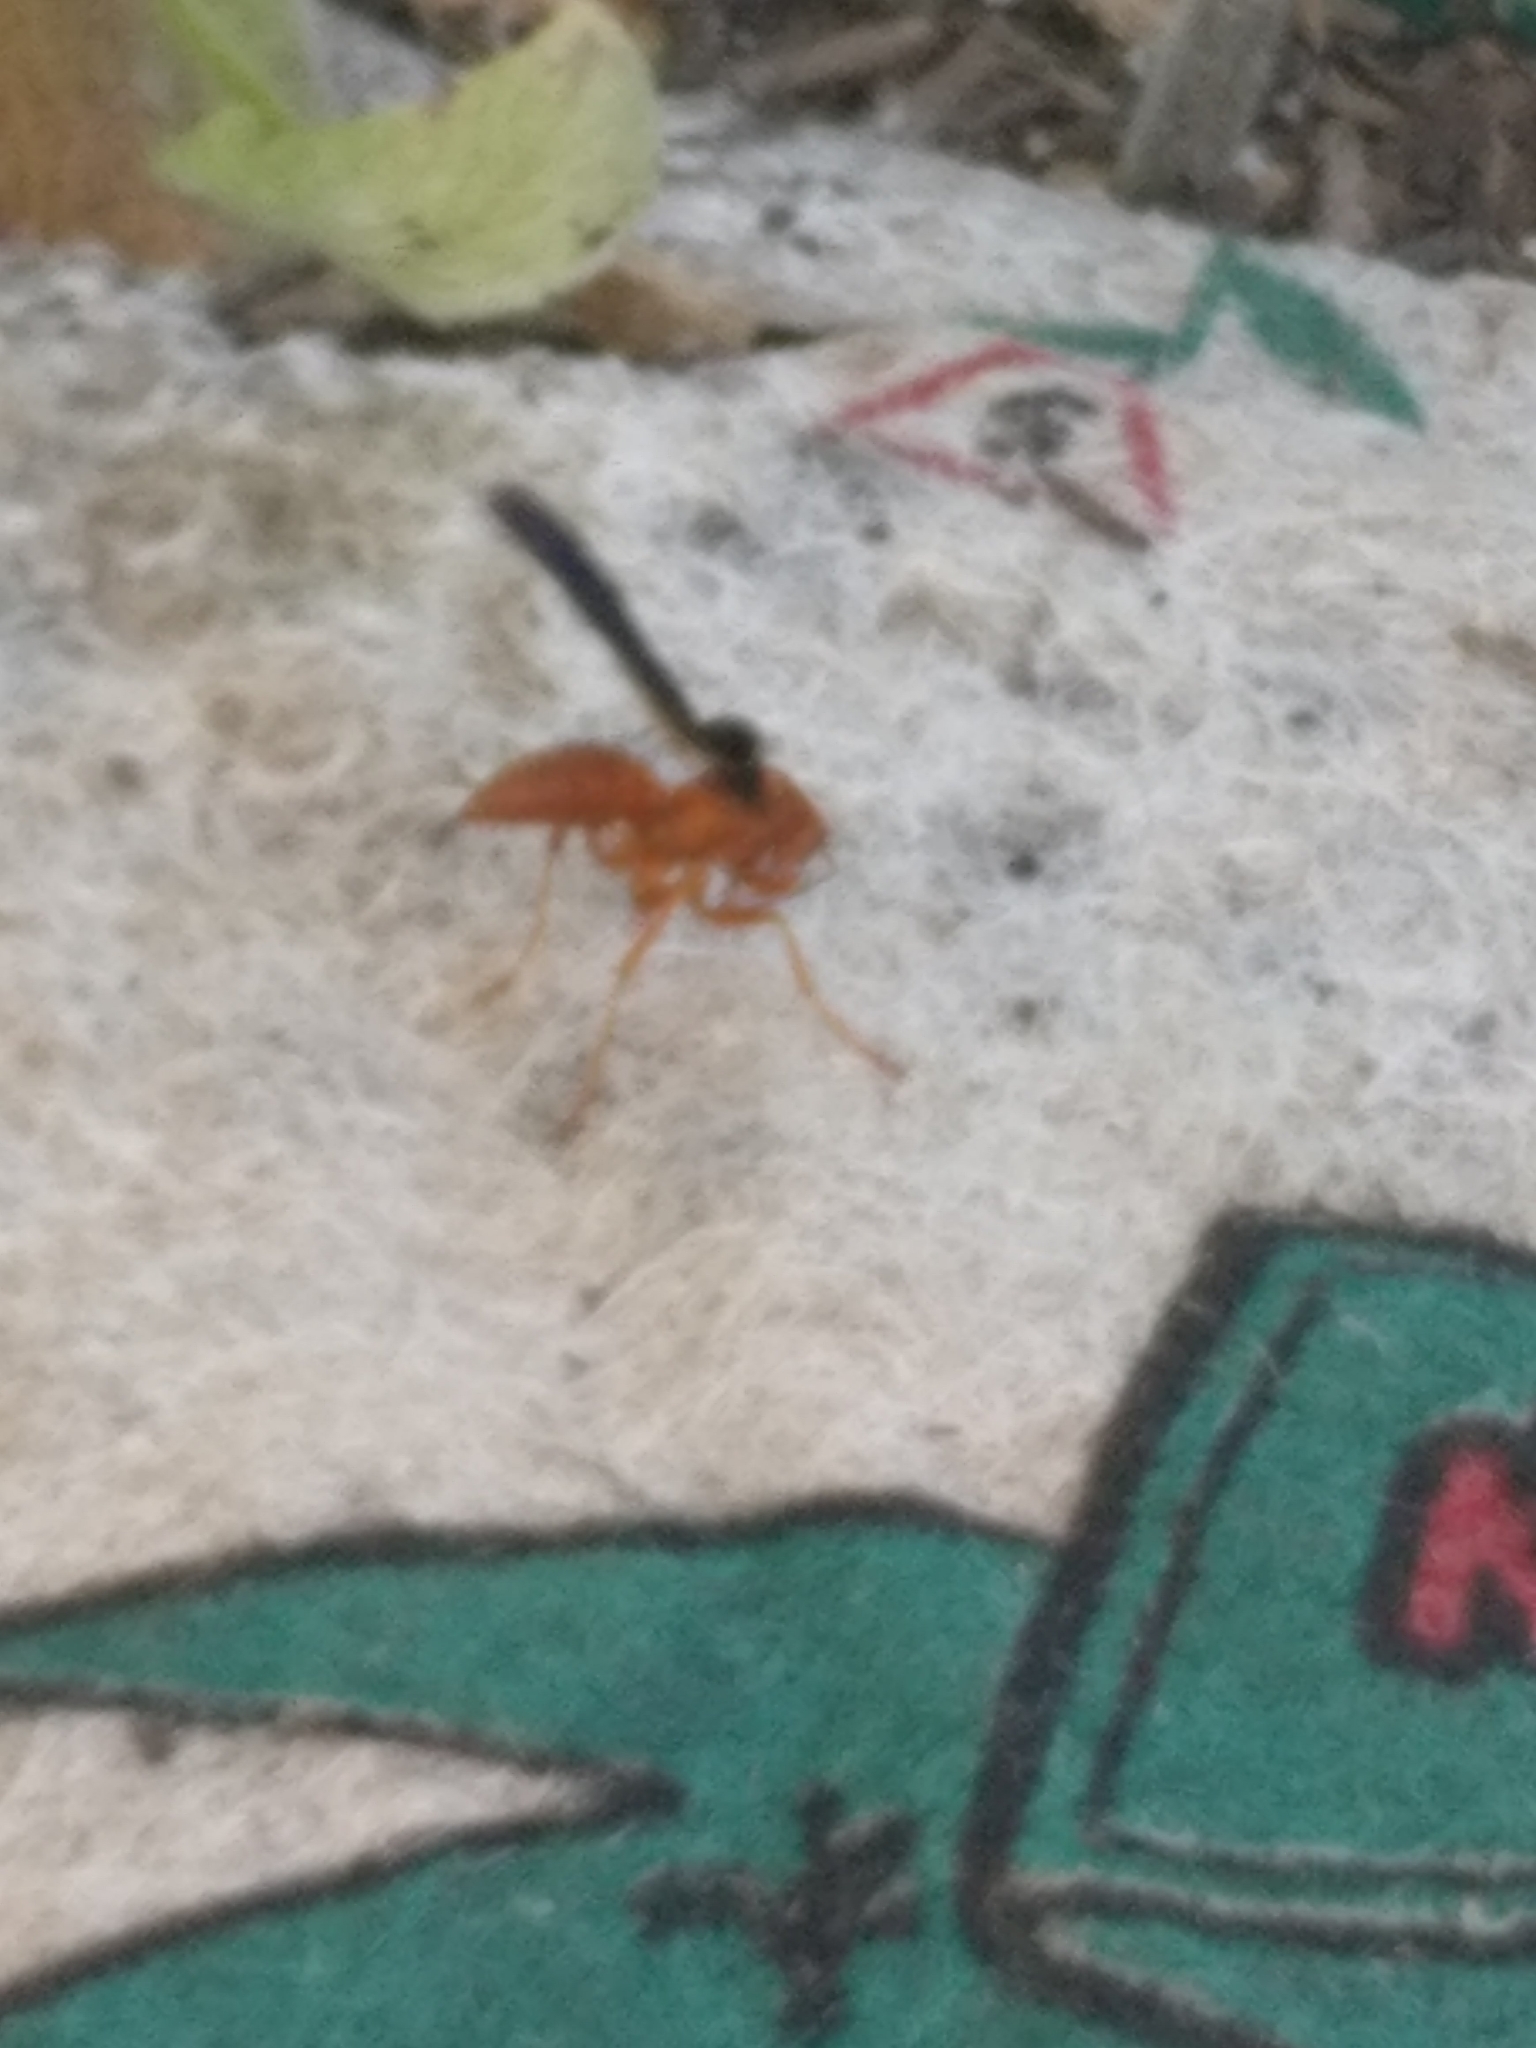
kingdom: Animalia
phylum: Arthropoda
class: Insecta
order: Hymenoptera
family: Vespidae
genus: Fuscopolistes
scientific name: Fuscopolistes
